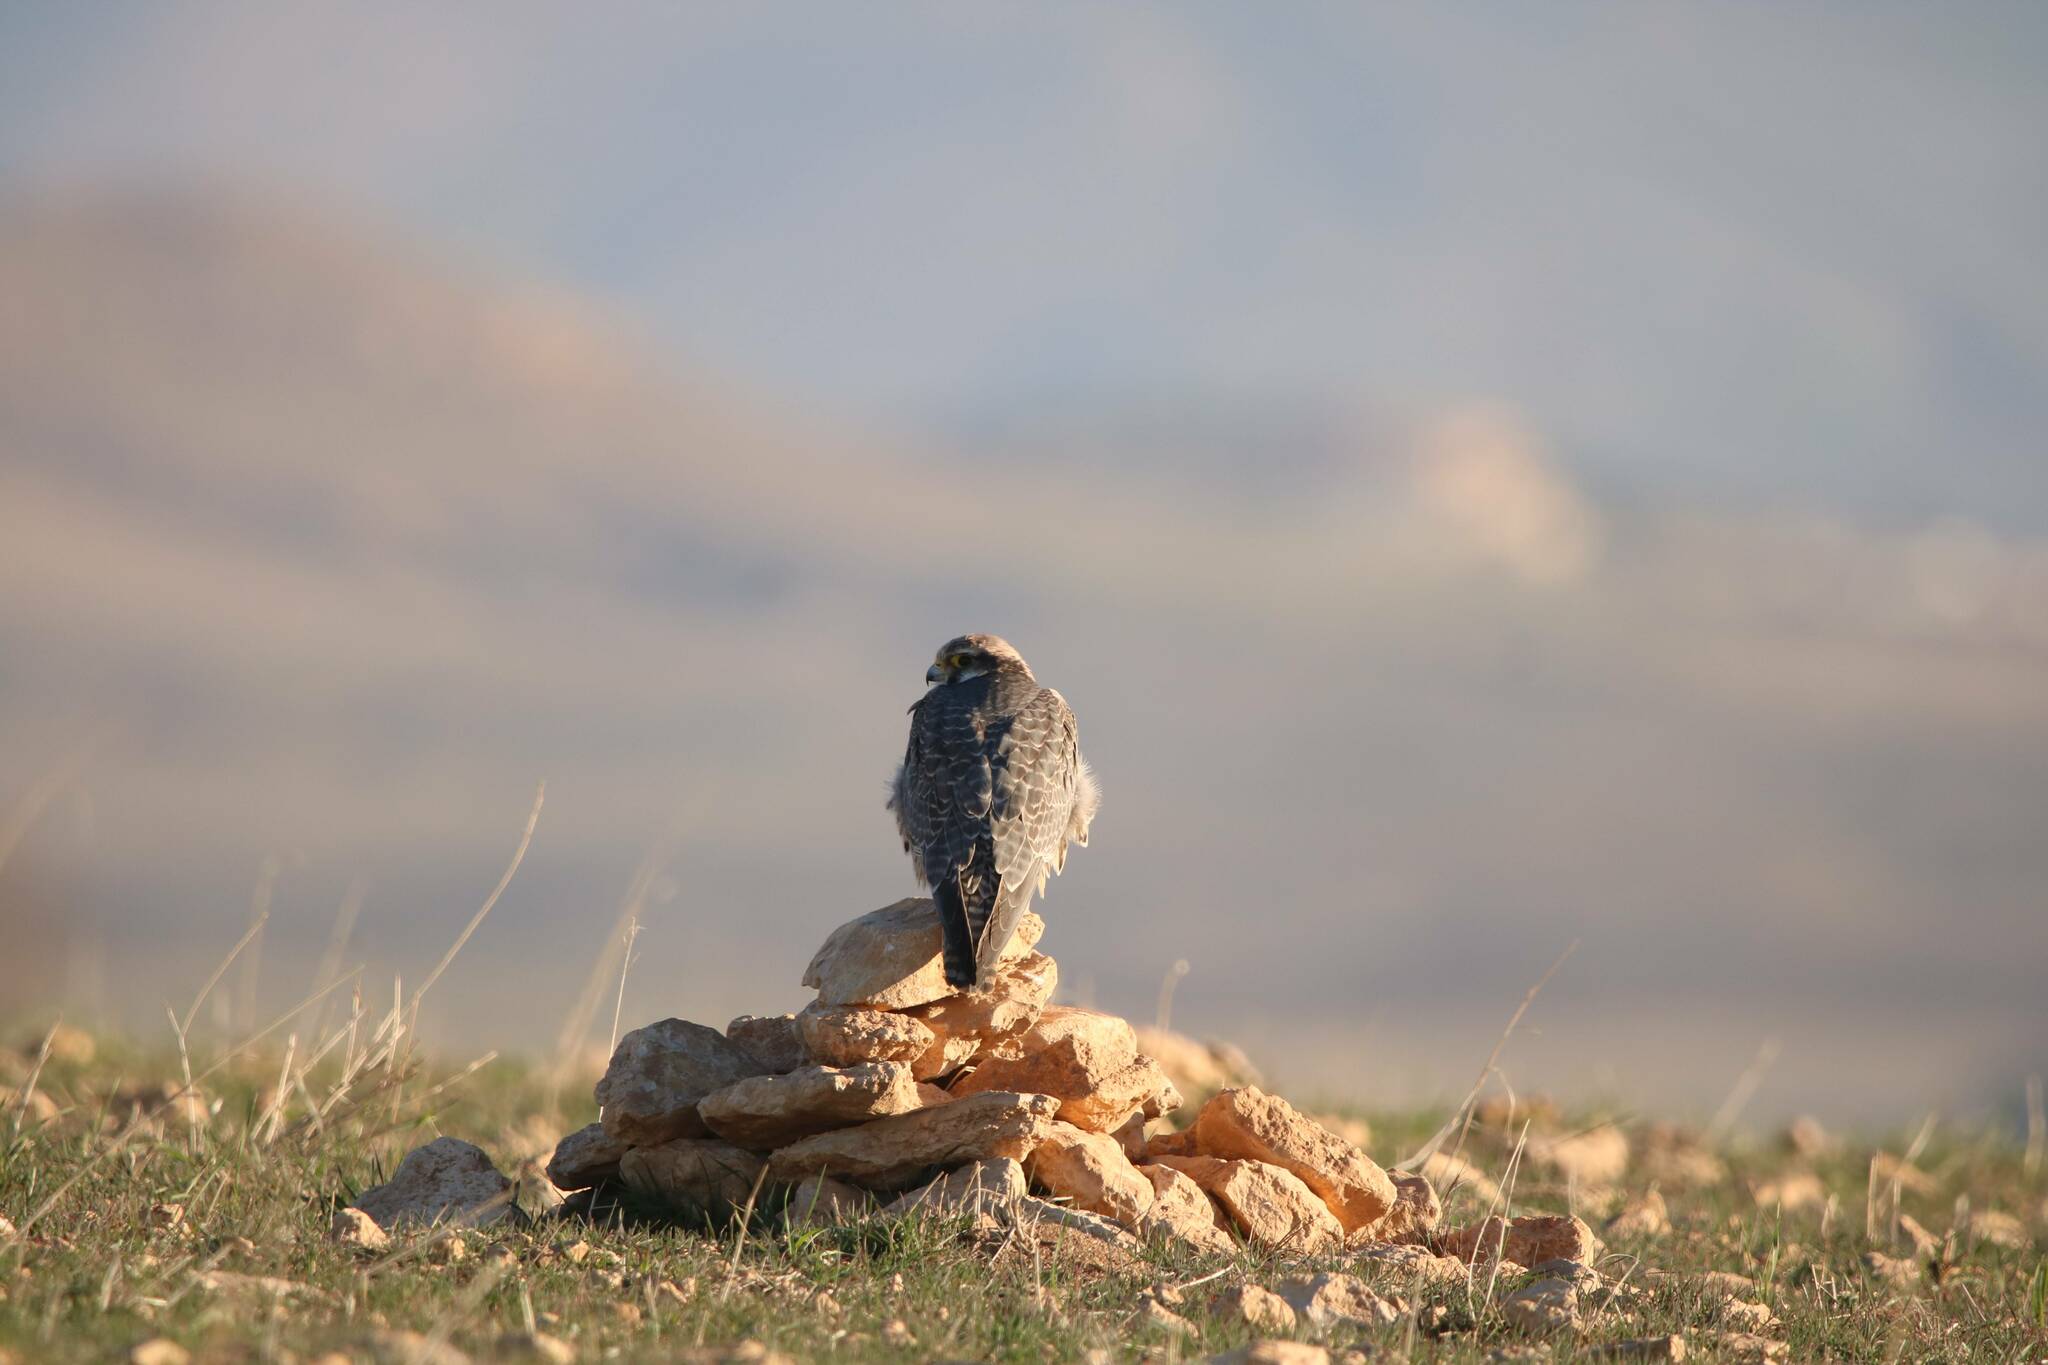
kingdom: Animalia
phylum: Chordata
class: Aves
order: Falconiformes
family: Falconidae
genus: Falco
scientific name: Falco biarmicus
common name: Lanner falcon
